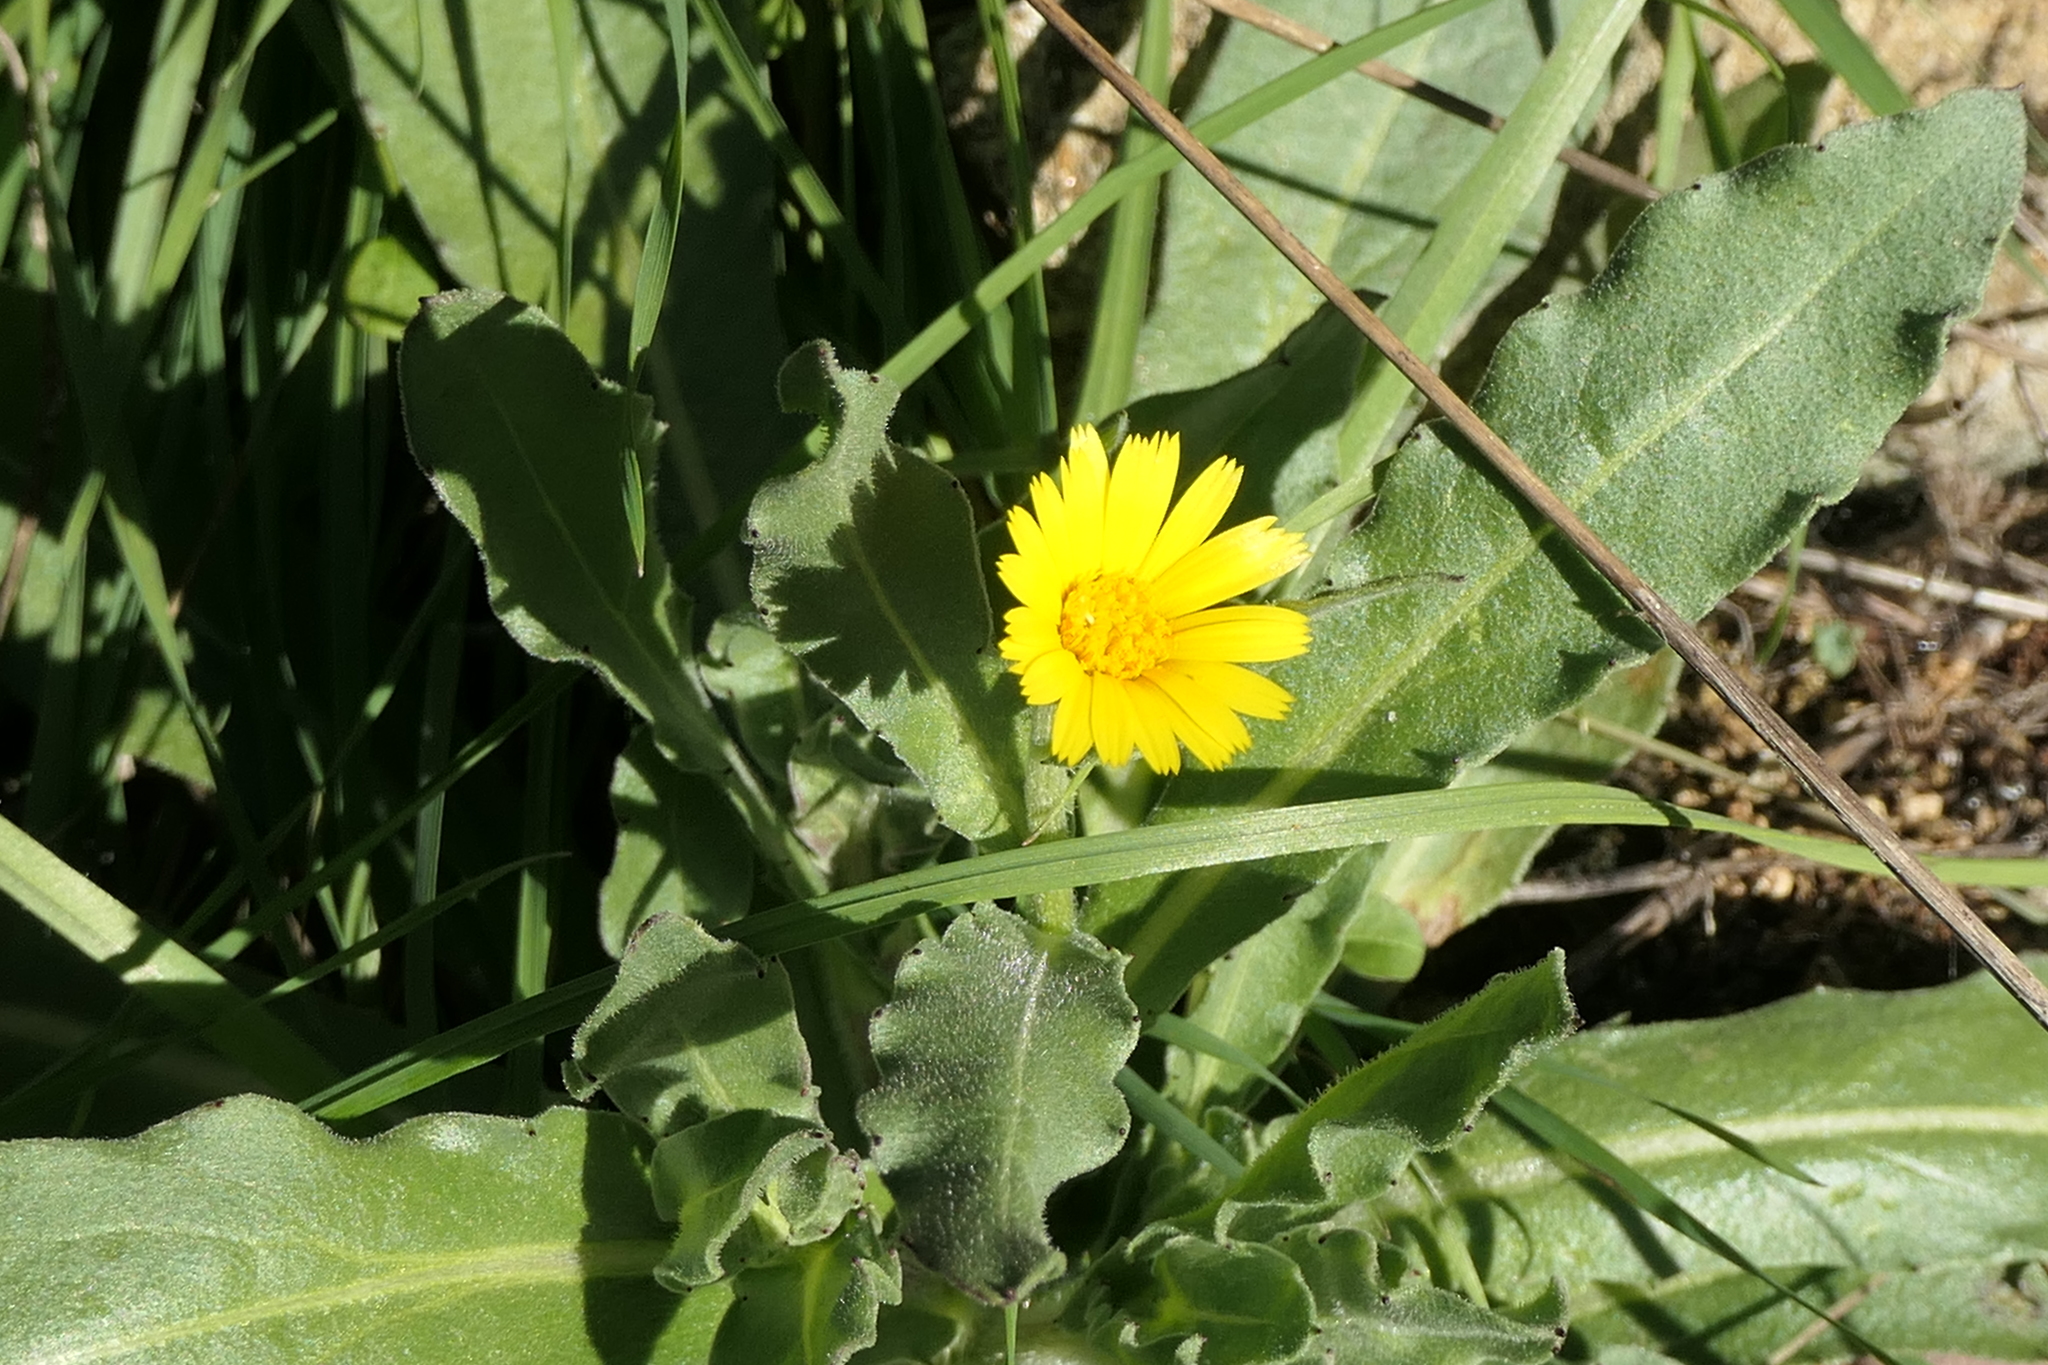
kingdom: Plantae
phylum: Tracheophyta
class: Magnoliopsida
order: Asterales
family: Asteraceae
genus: Calendula
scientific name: Calendula arvensis
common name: Field marigold
